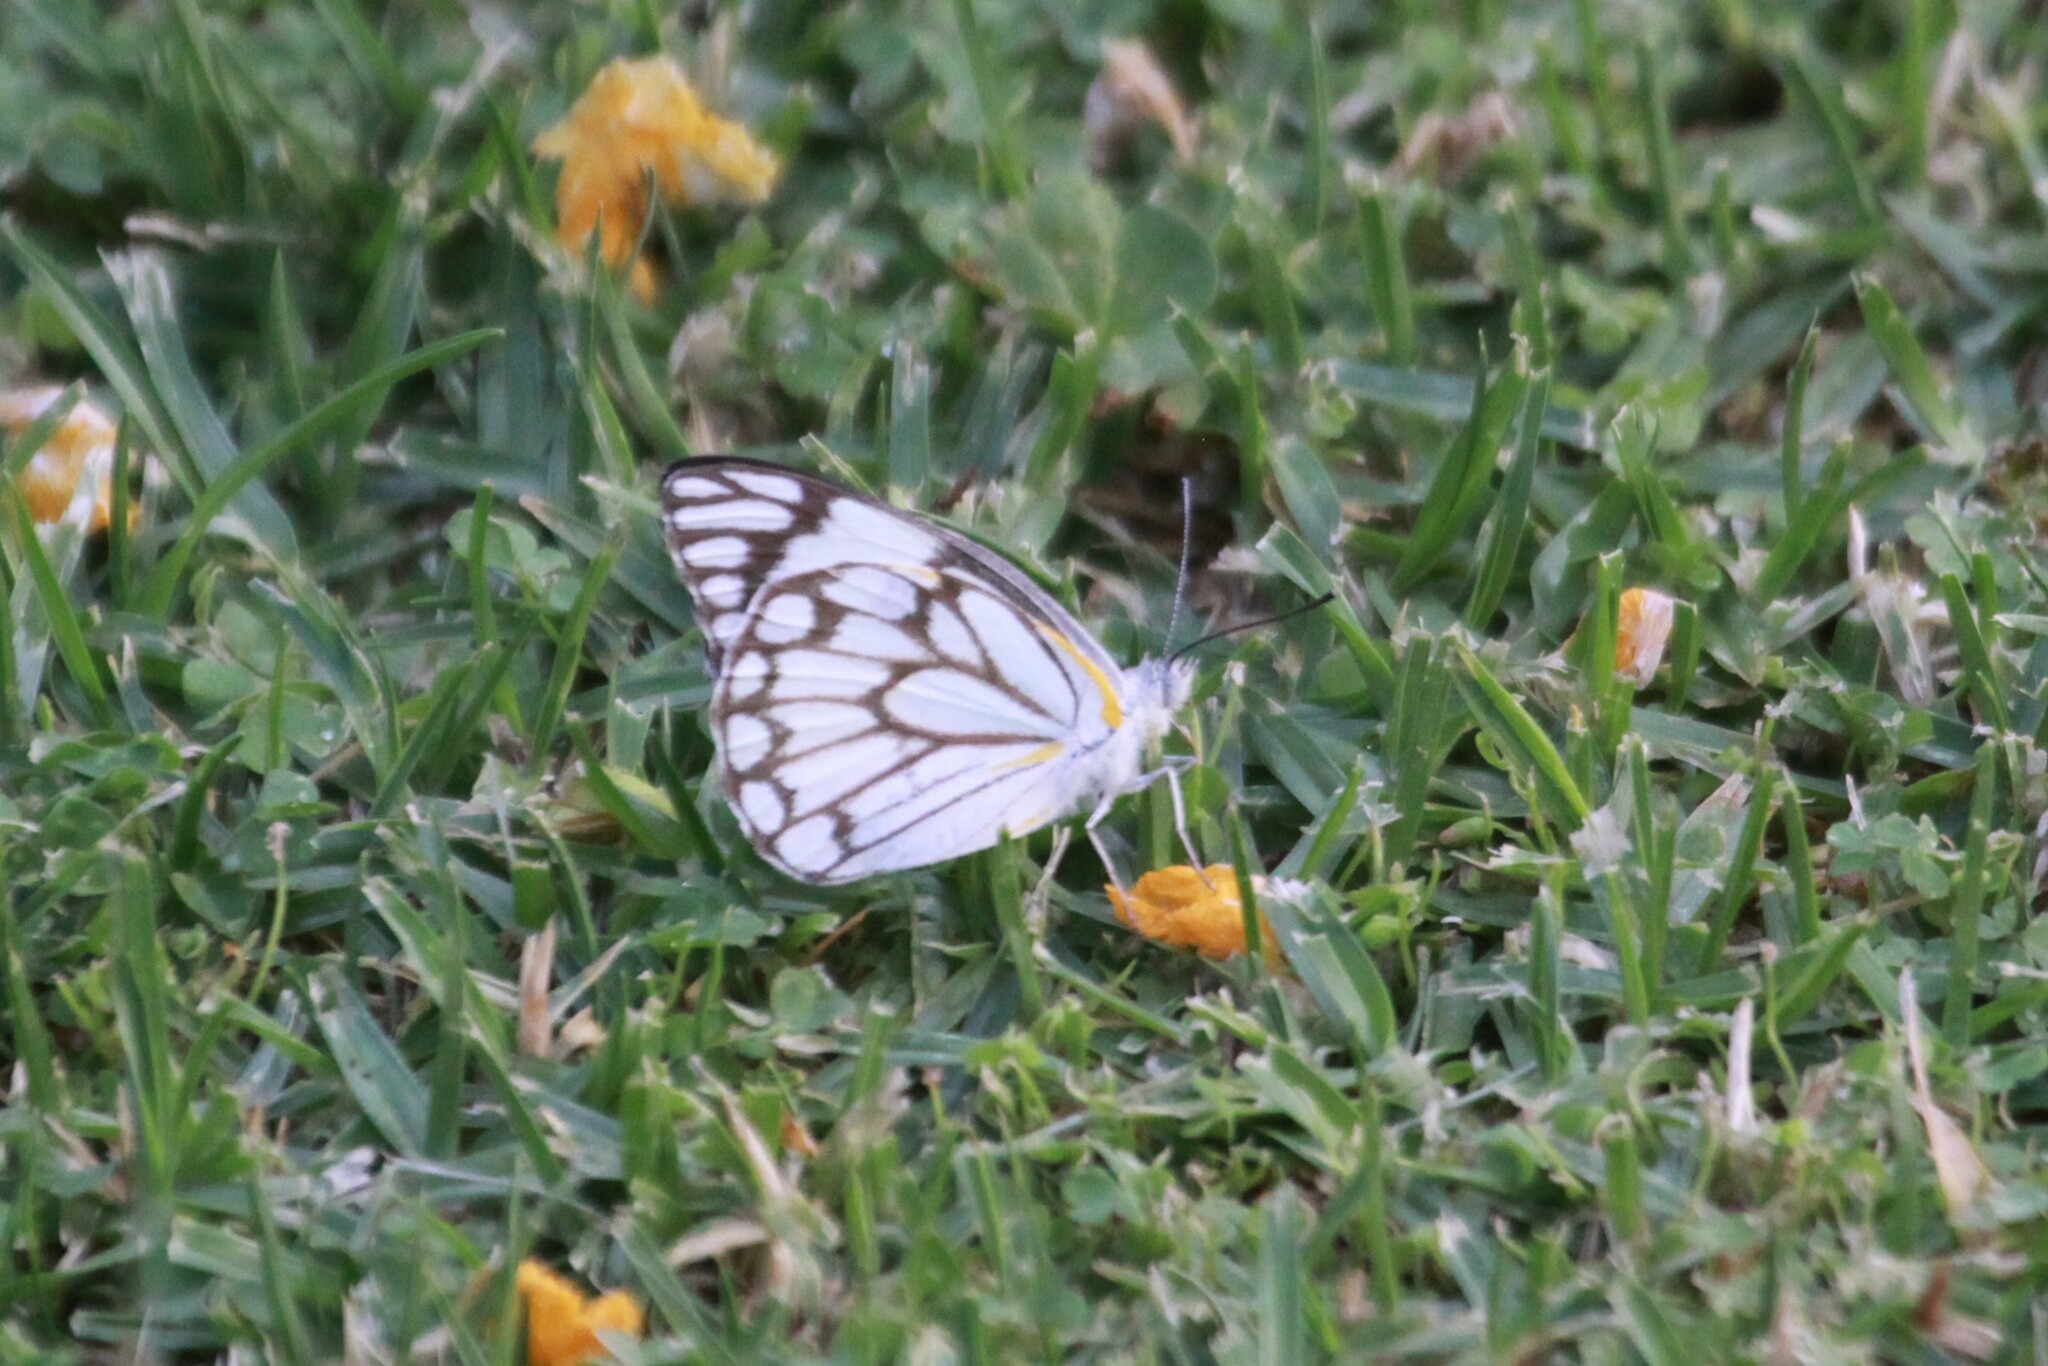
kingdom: Animalia
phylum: Arthropoda
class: Insecta
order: Lepidoptera
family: Pieridae
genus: Belenois
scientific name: Belenois aurota
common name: Brown-veined white
